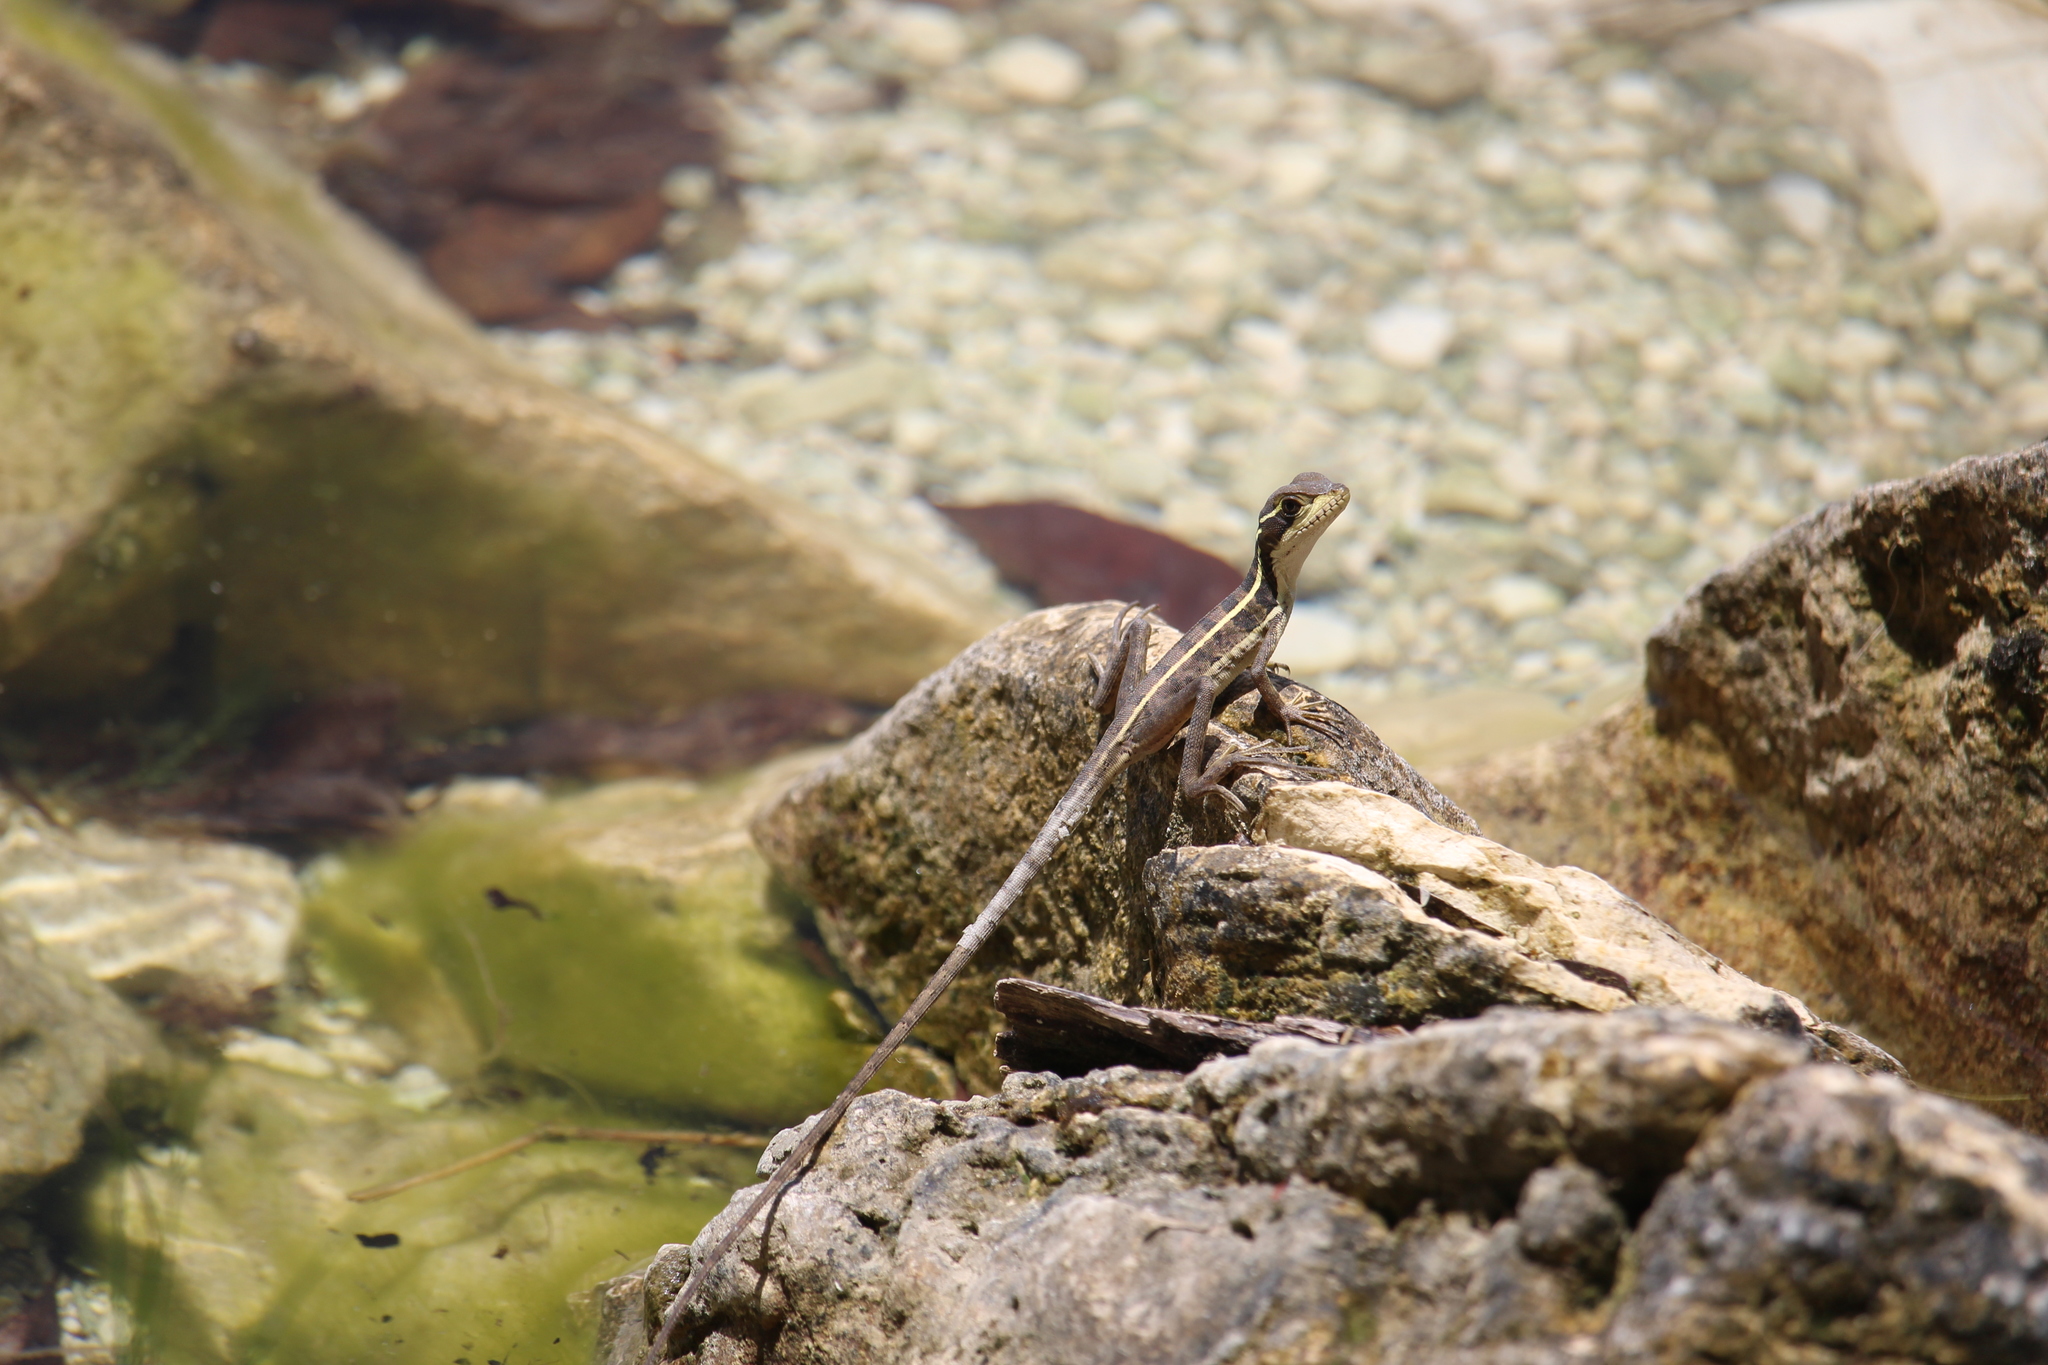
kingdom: Animalia
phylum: Chordata
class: Squamata
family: Corytophanidae
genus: Basiliscus
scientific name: Basiliscus vittatus
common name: Brown basilisk
